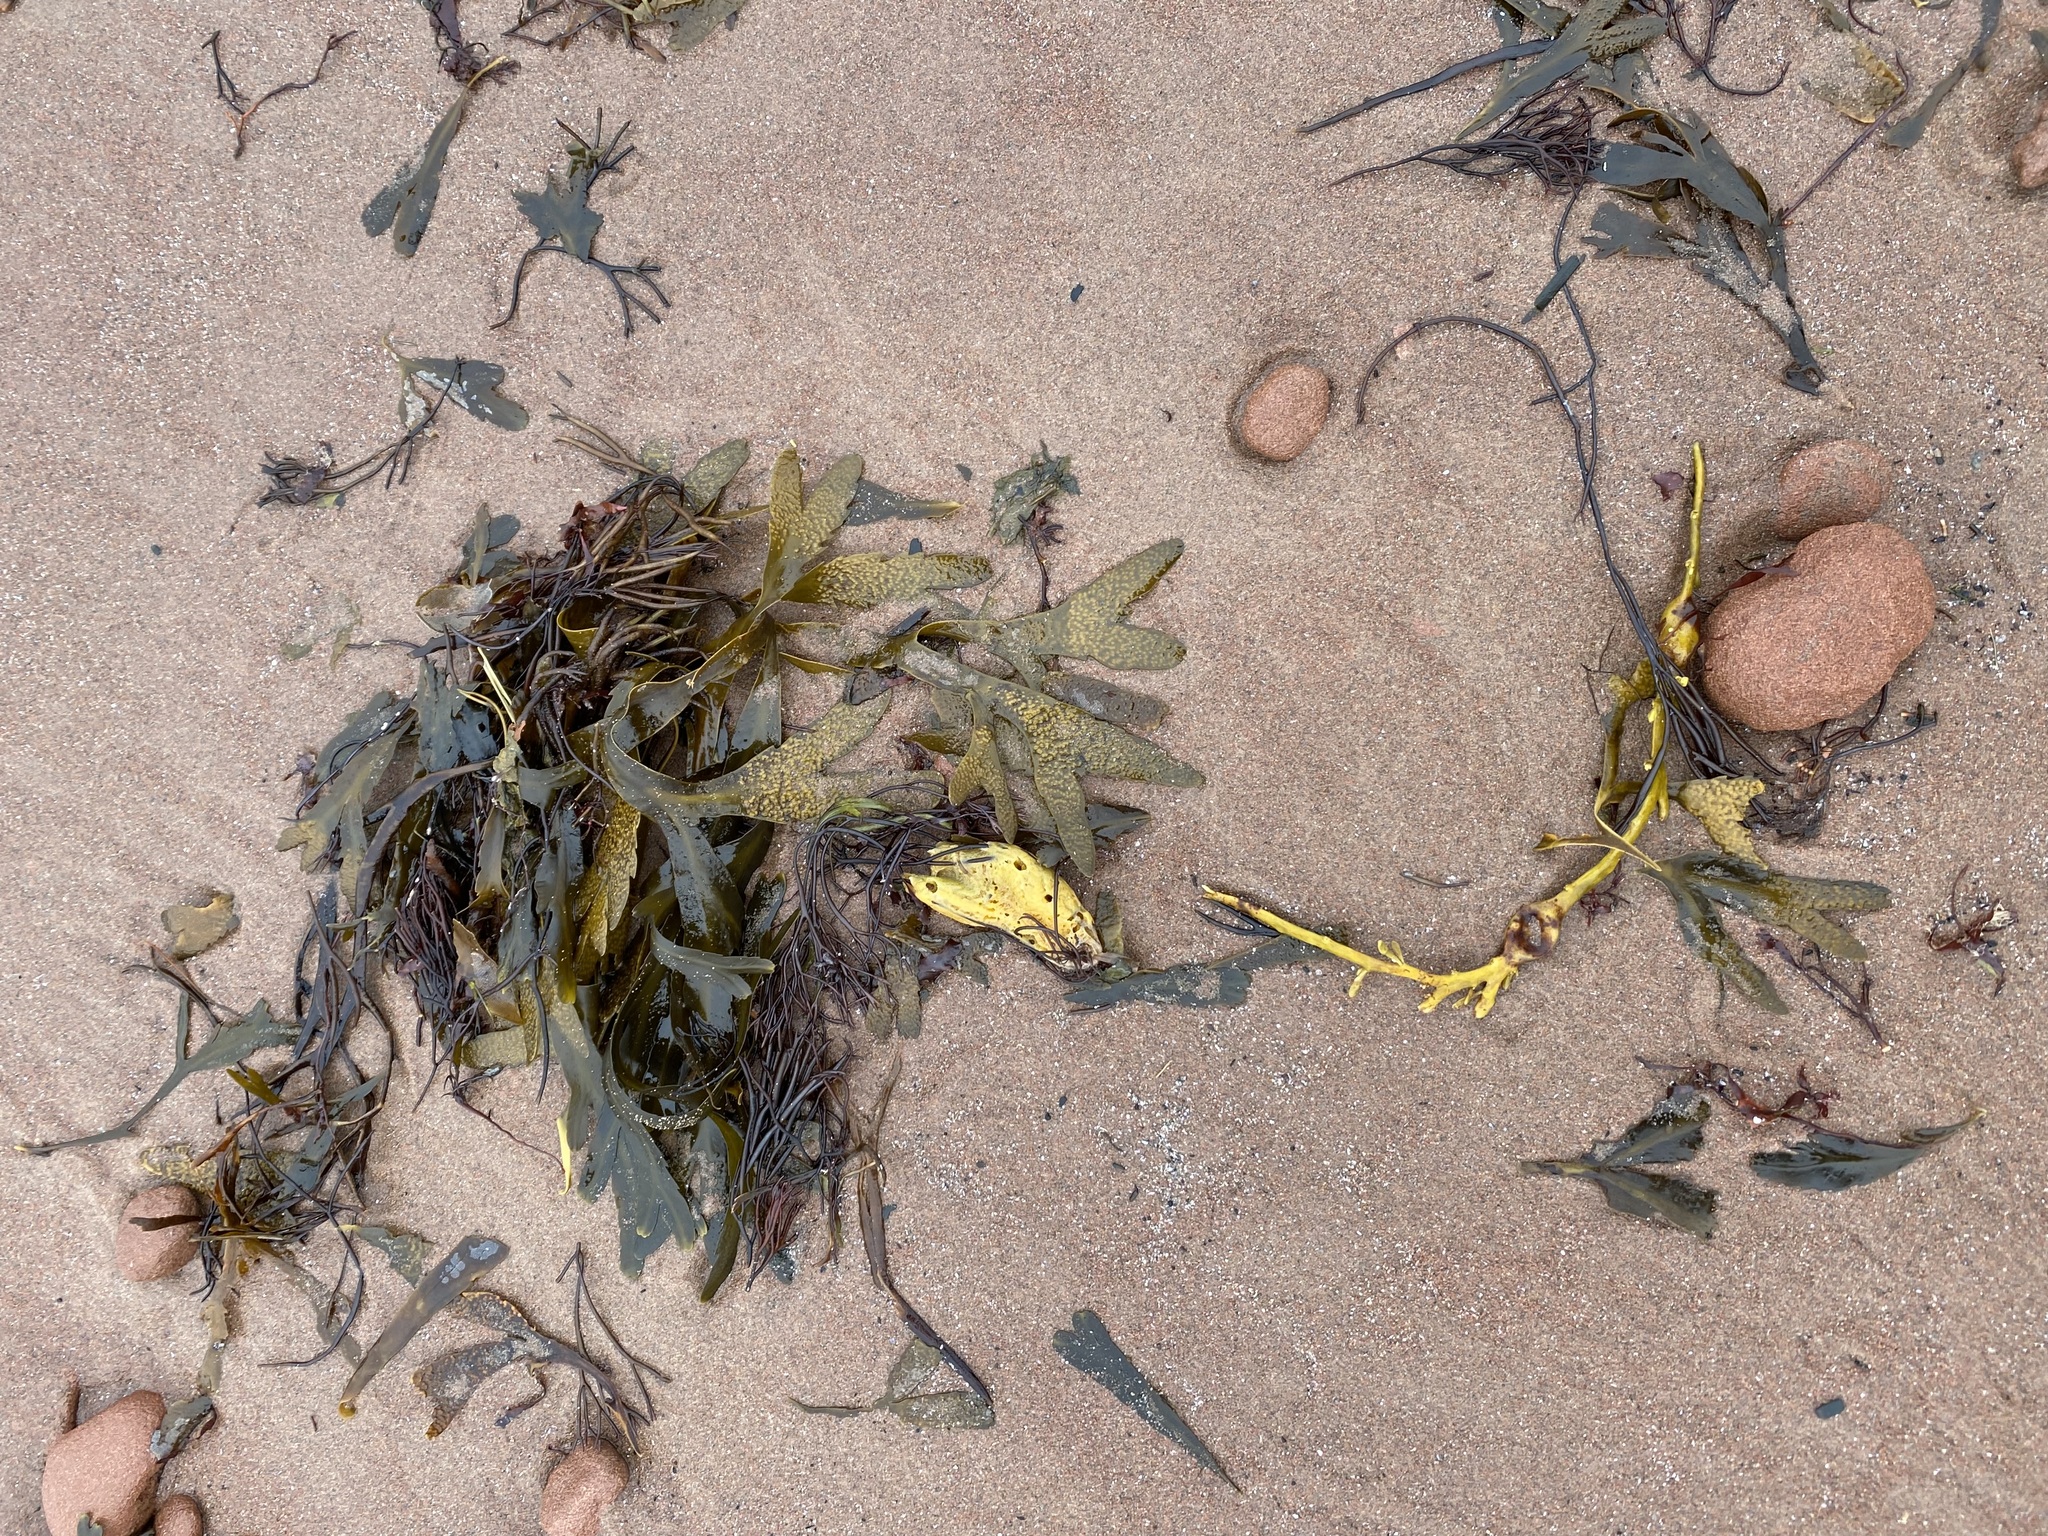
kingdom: Chromista
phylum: Ochrophyta
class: Phaeophyceae
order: Fucales
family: Fucaceae
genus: Fucus
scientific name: Fucus serratus
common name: Toothed wrack
